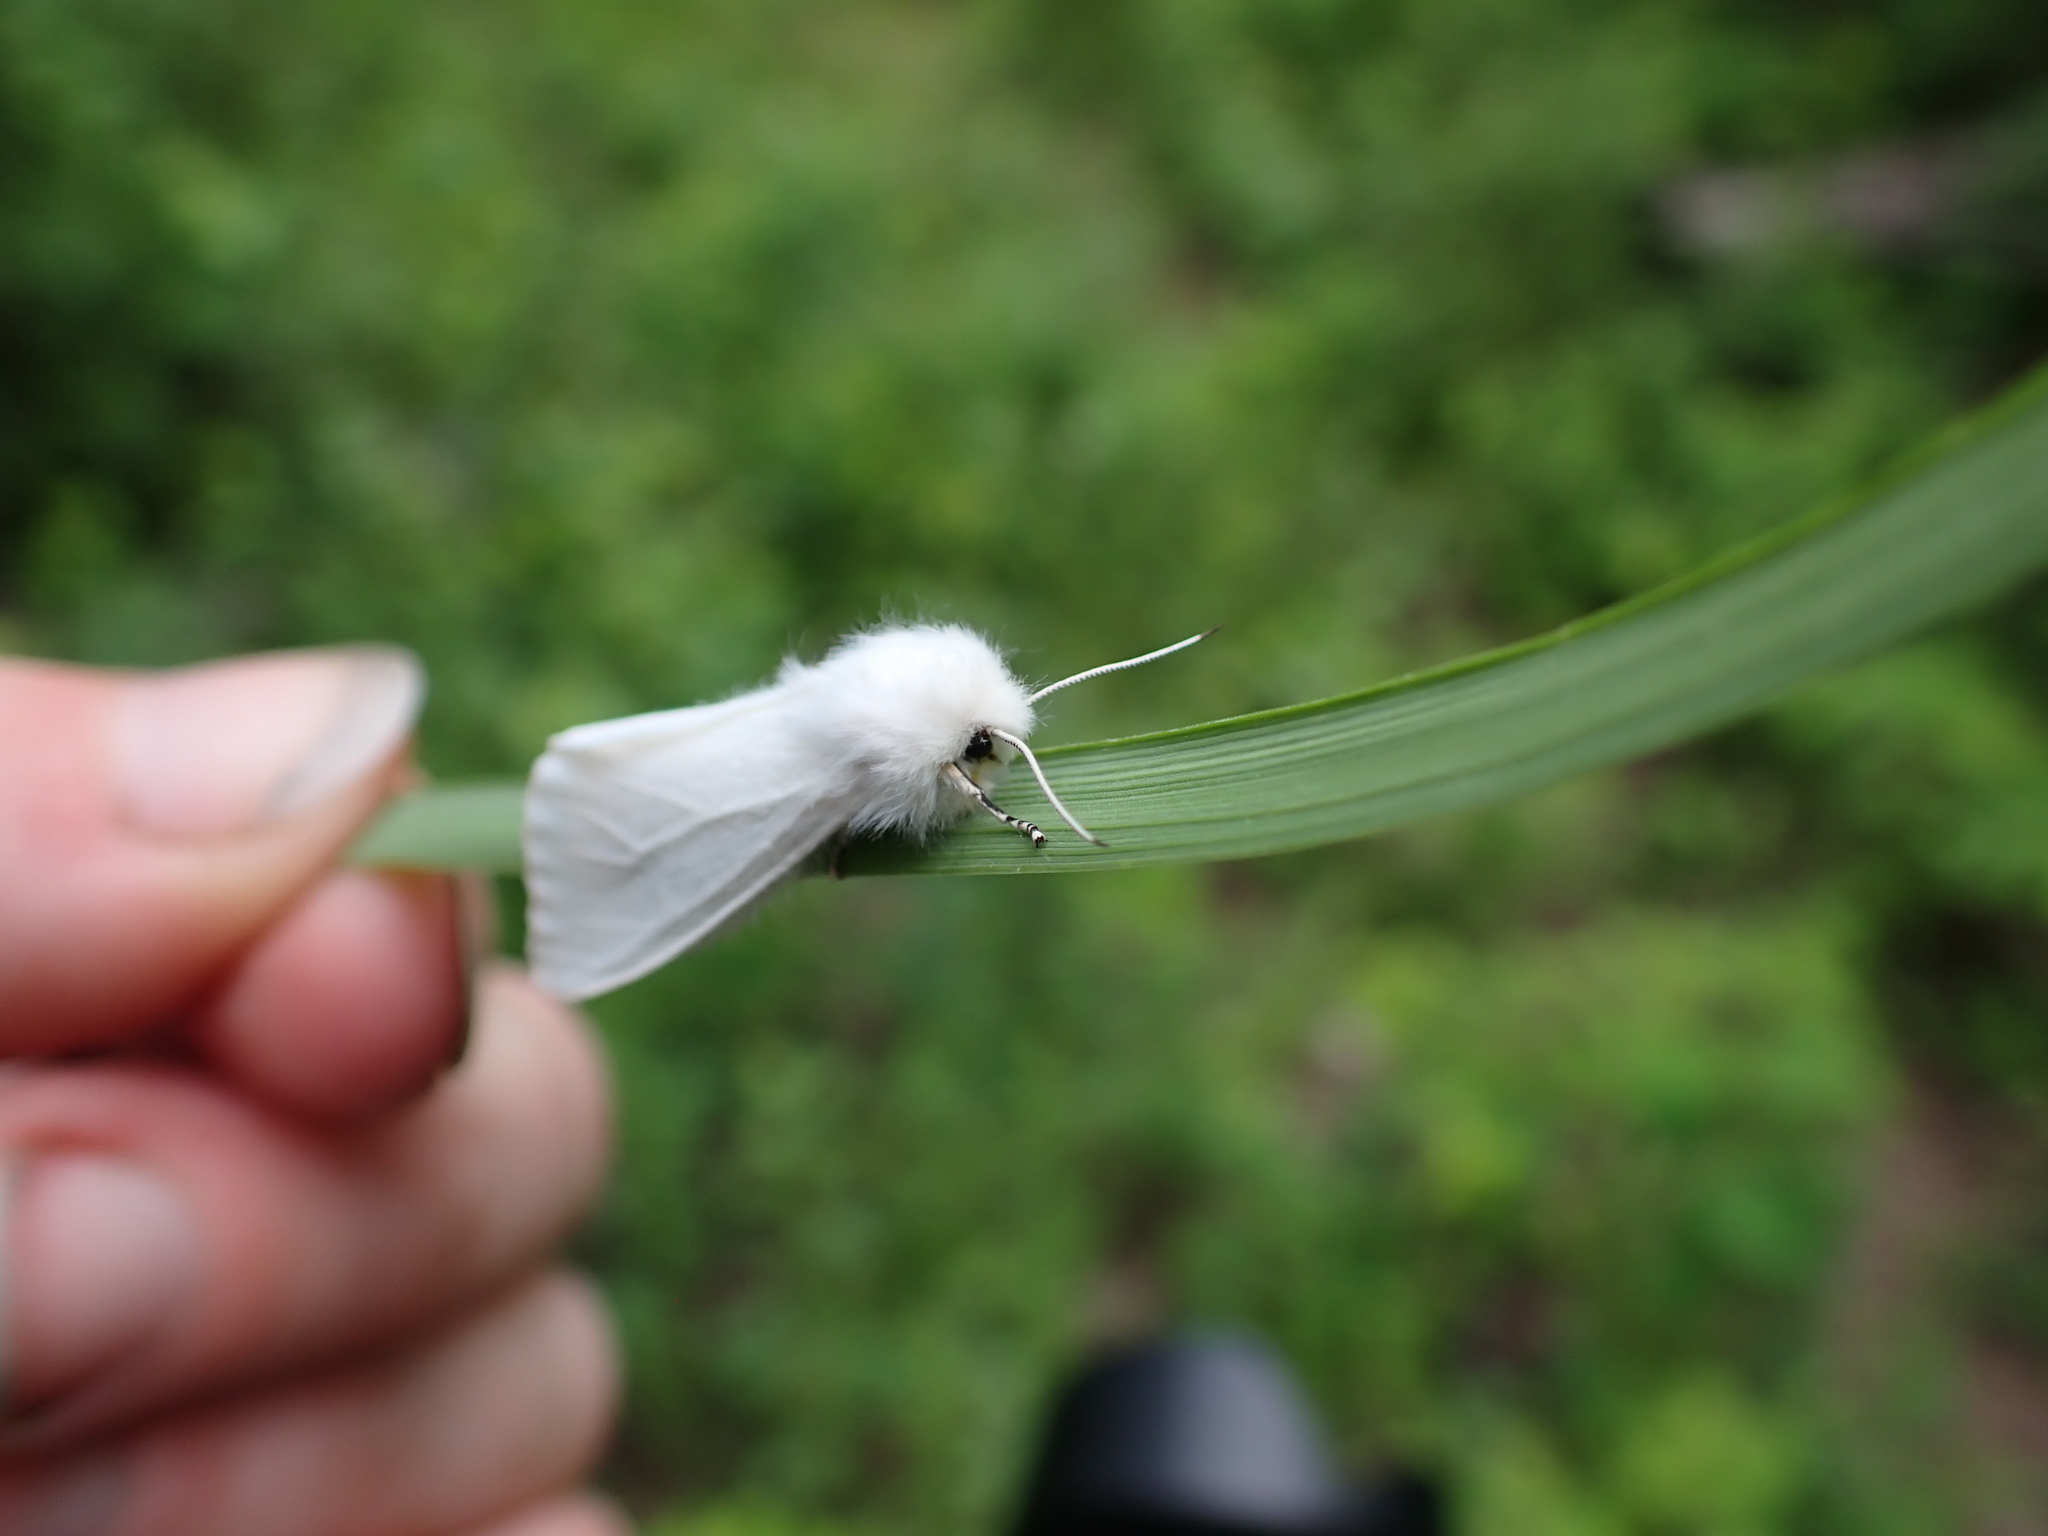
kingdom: Animalia
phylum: Arthropoda
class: Insecta
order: Lepidoptera
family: Erebidae
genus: Hyphantria
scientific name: Hyphantria cunea
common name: American white moth
